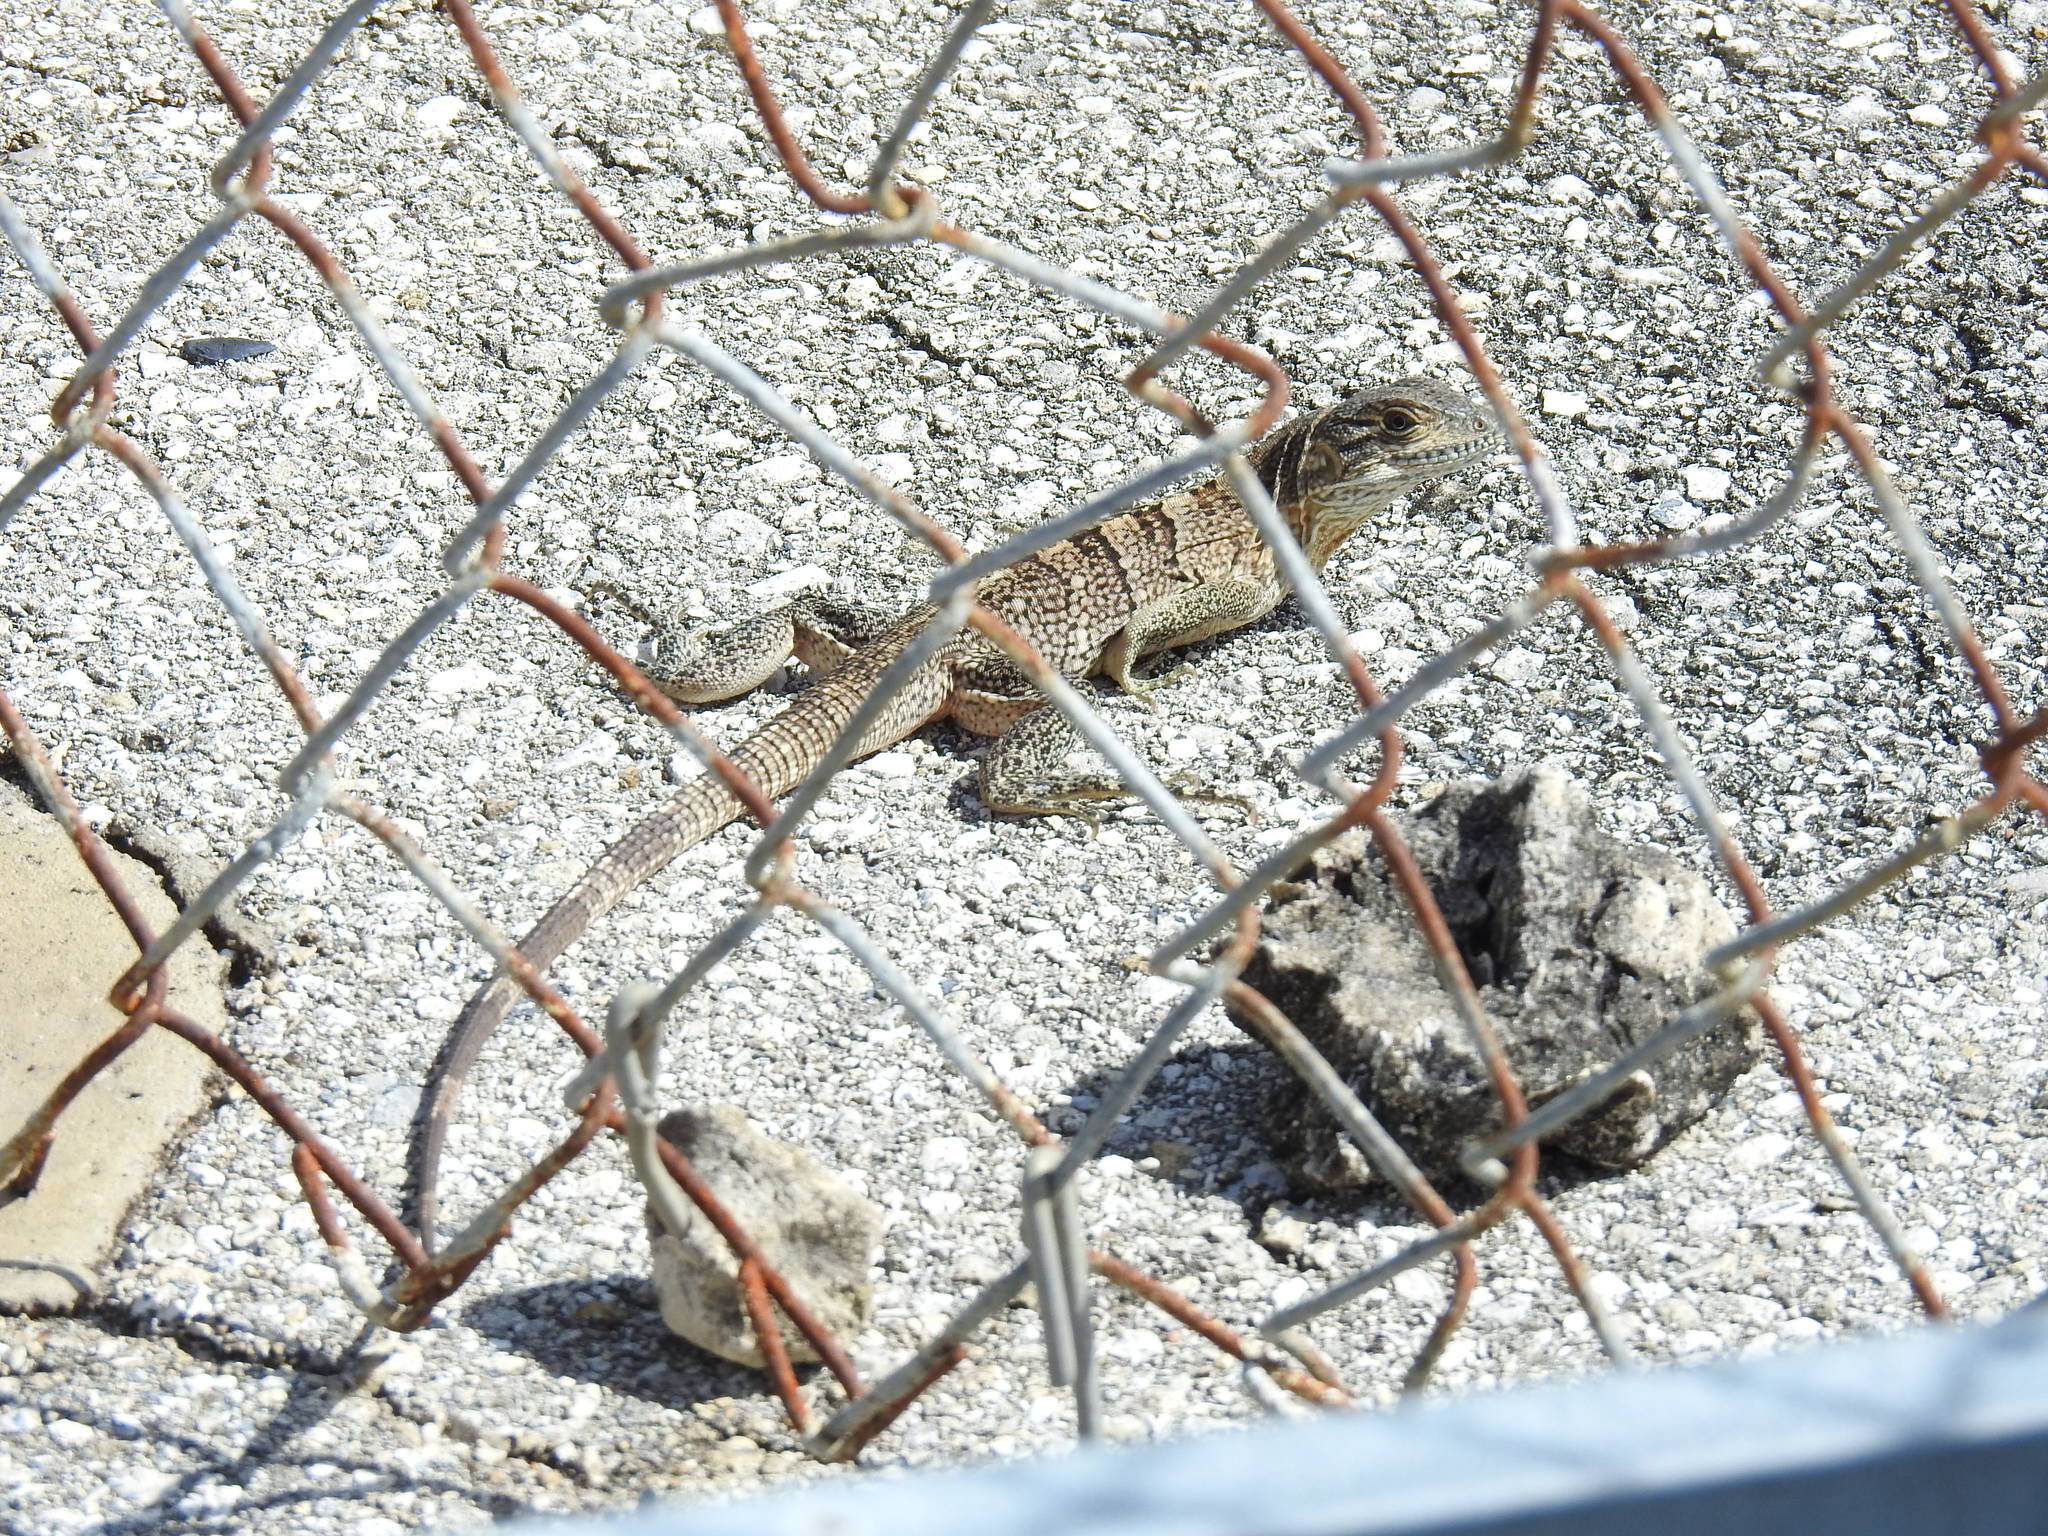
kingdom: Animalia
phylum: Chordata
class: Squamata
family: Iguanidae
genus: Ctenosaura
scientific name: Ctenosaura similis
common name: Black spiny-tailed iguana
